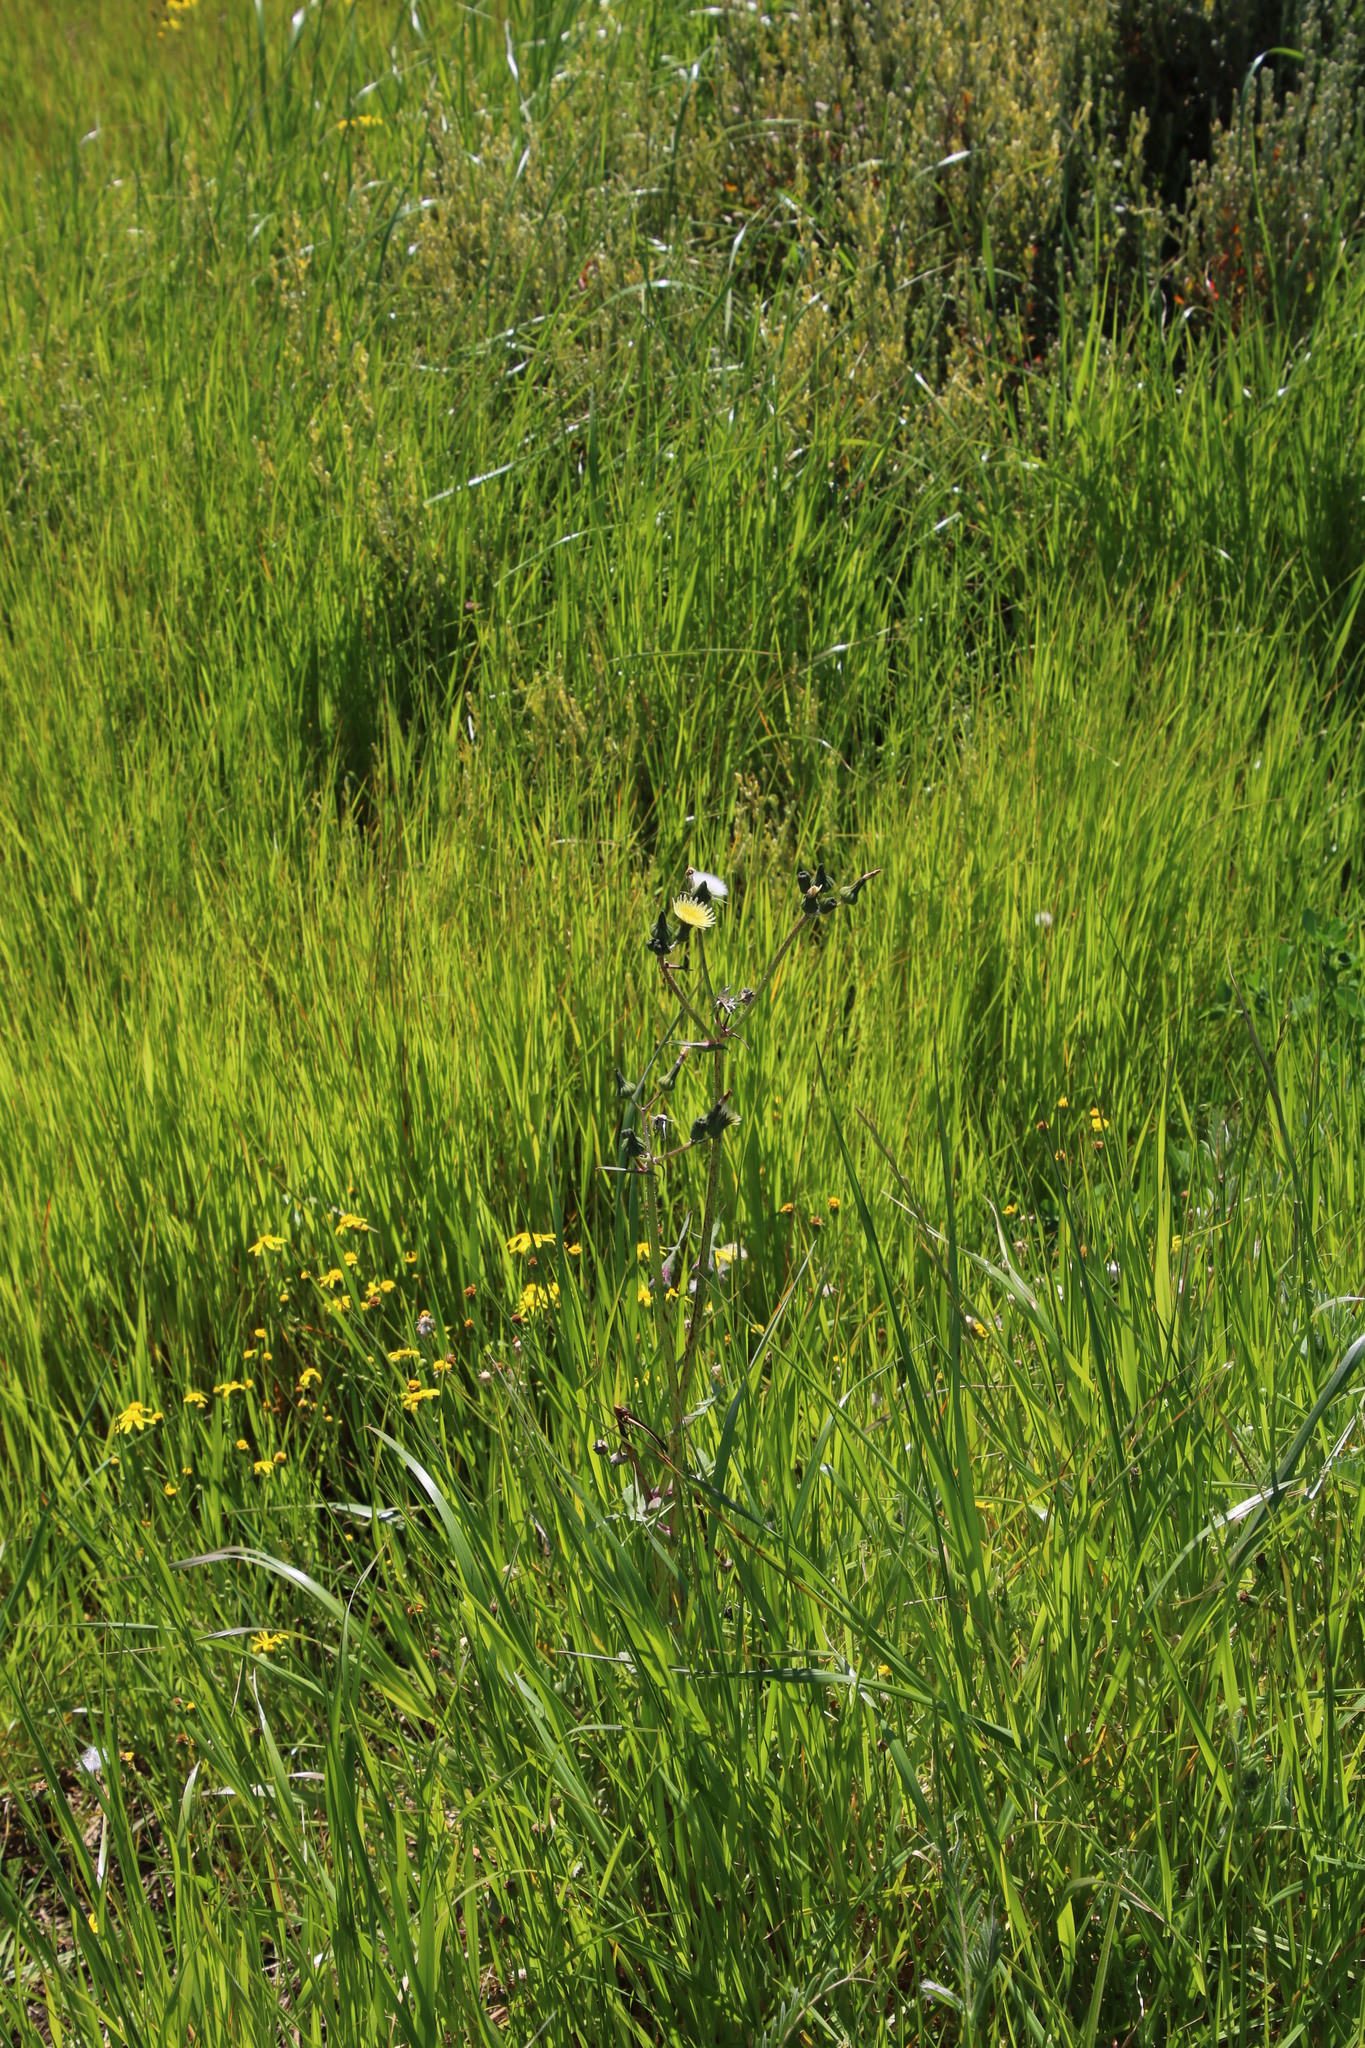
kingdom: Plantae
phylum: Tracheophyta
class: Magnoliopsida
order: Asterales
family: Asteraceae
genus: Sonchus
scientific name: Sonchus oleraceus
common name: Common sowthistle
